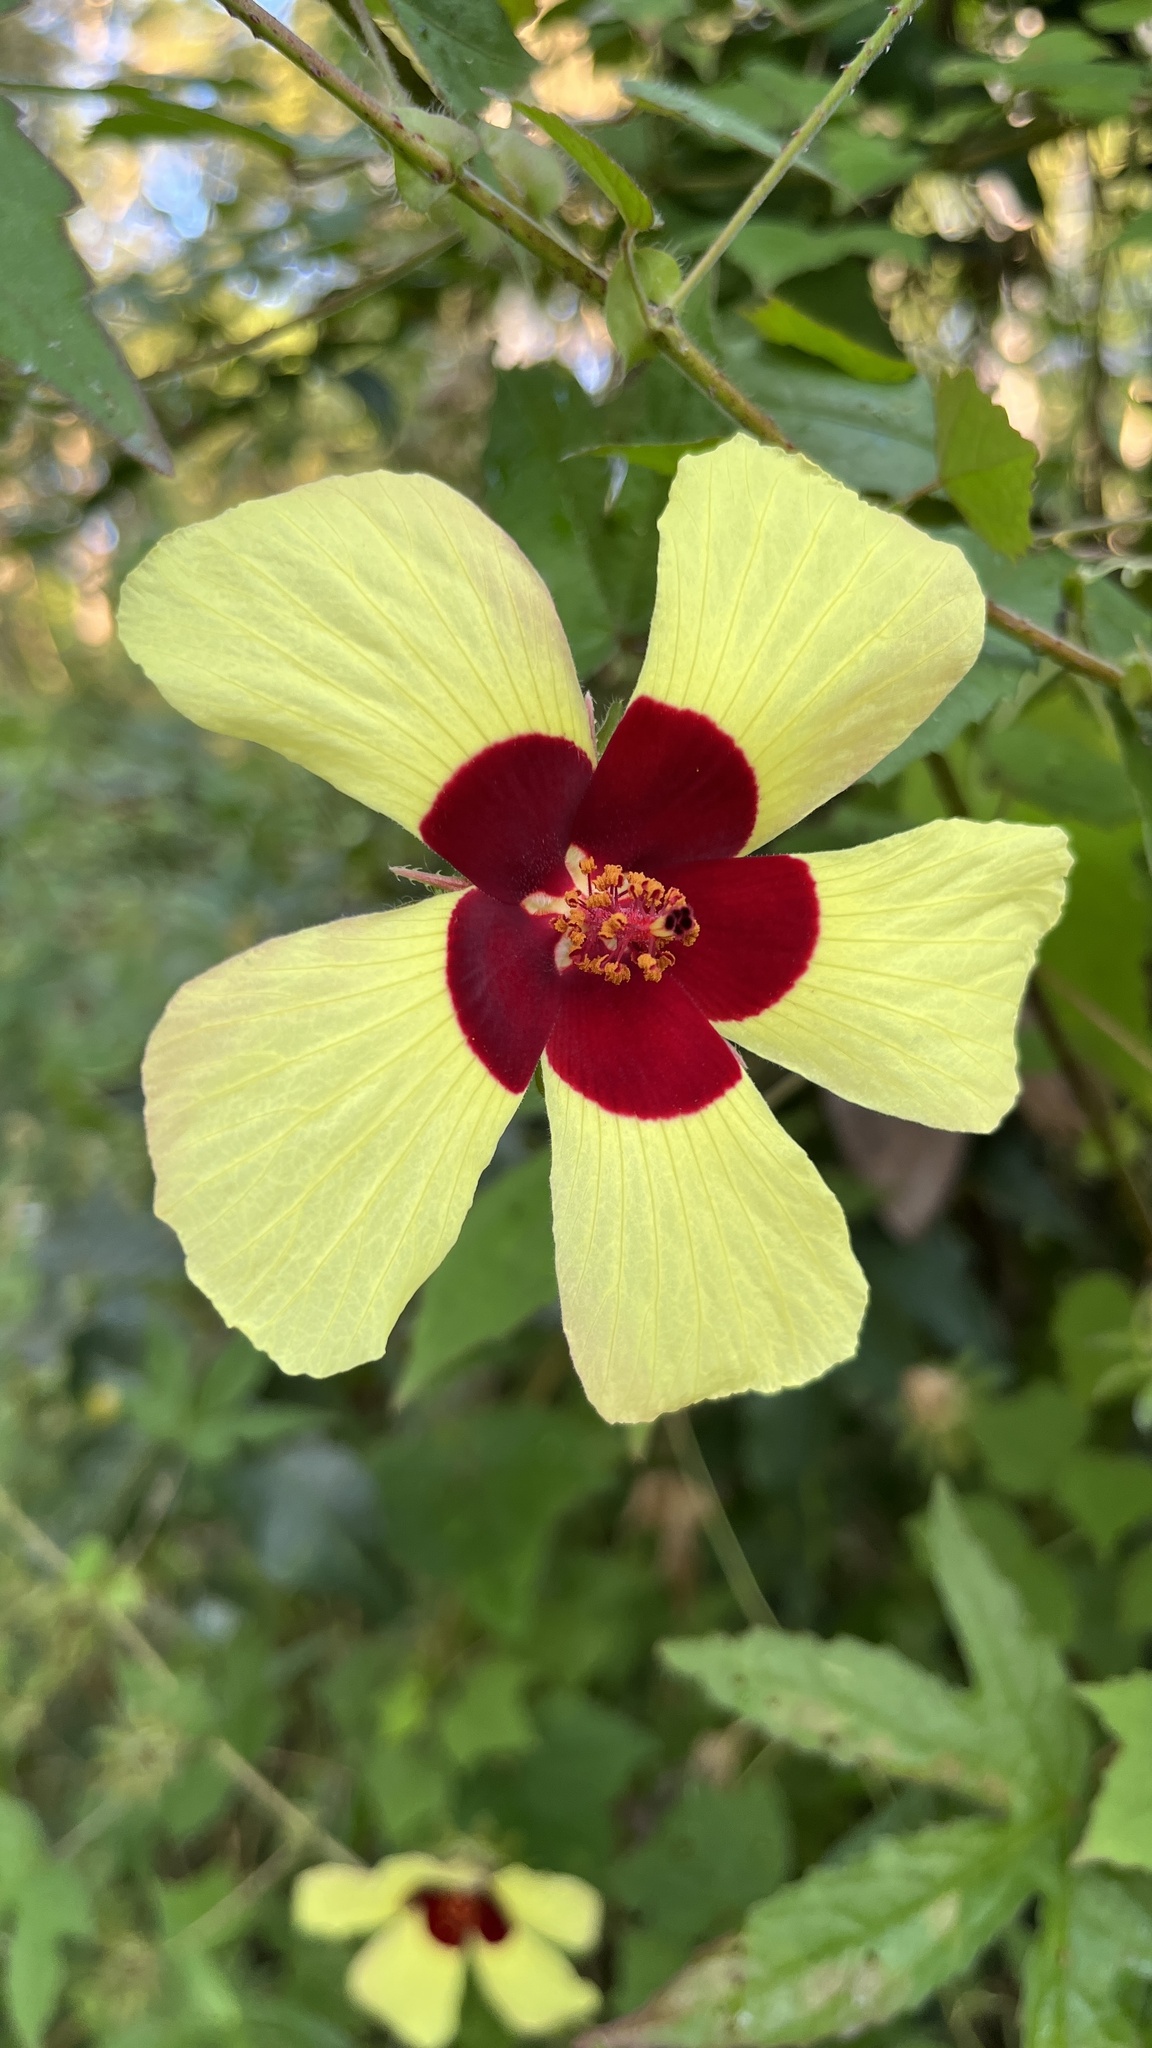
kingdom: Plantae
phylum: Tracheophyta
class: Magnoliopsida
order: Malvales
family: Malvaceae
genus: Hibiscus
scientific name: Hibiscus surattensis
